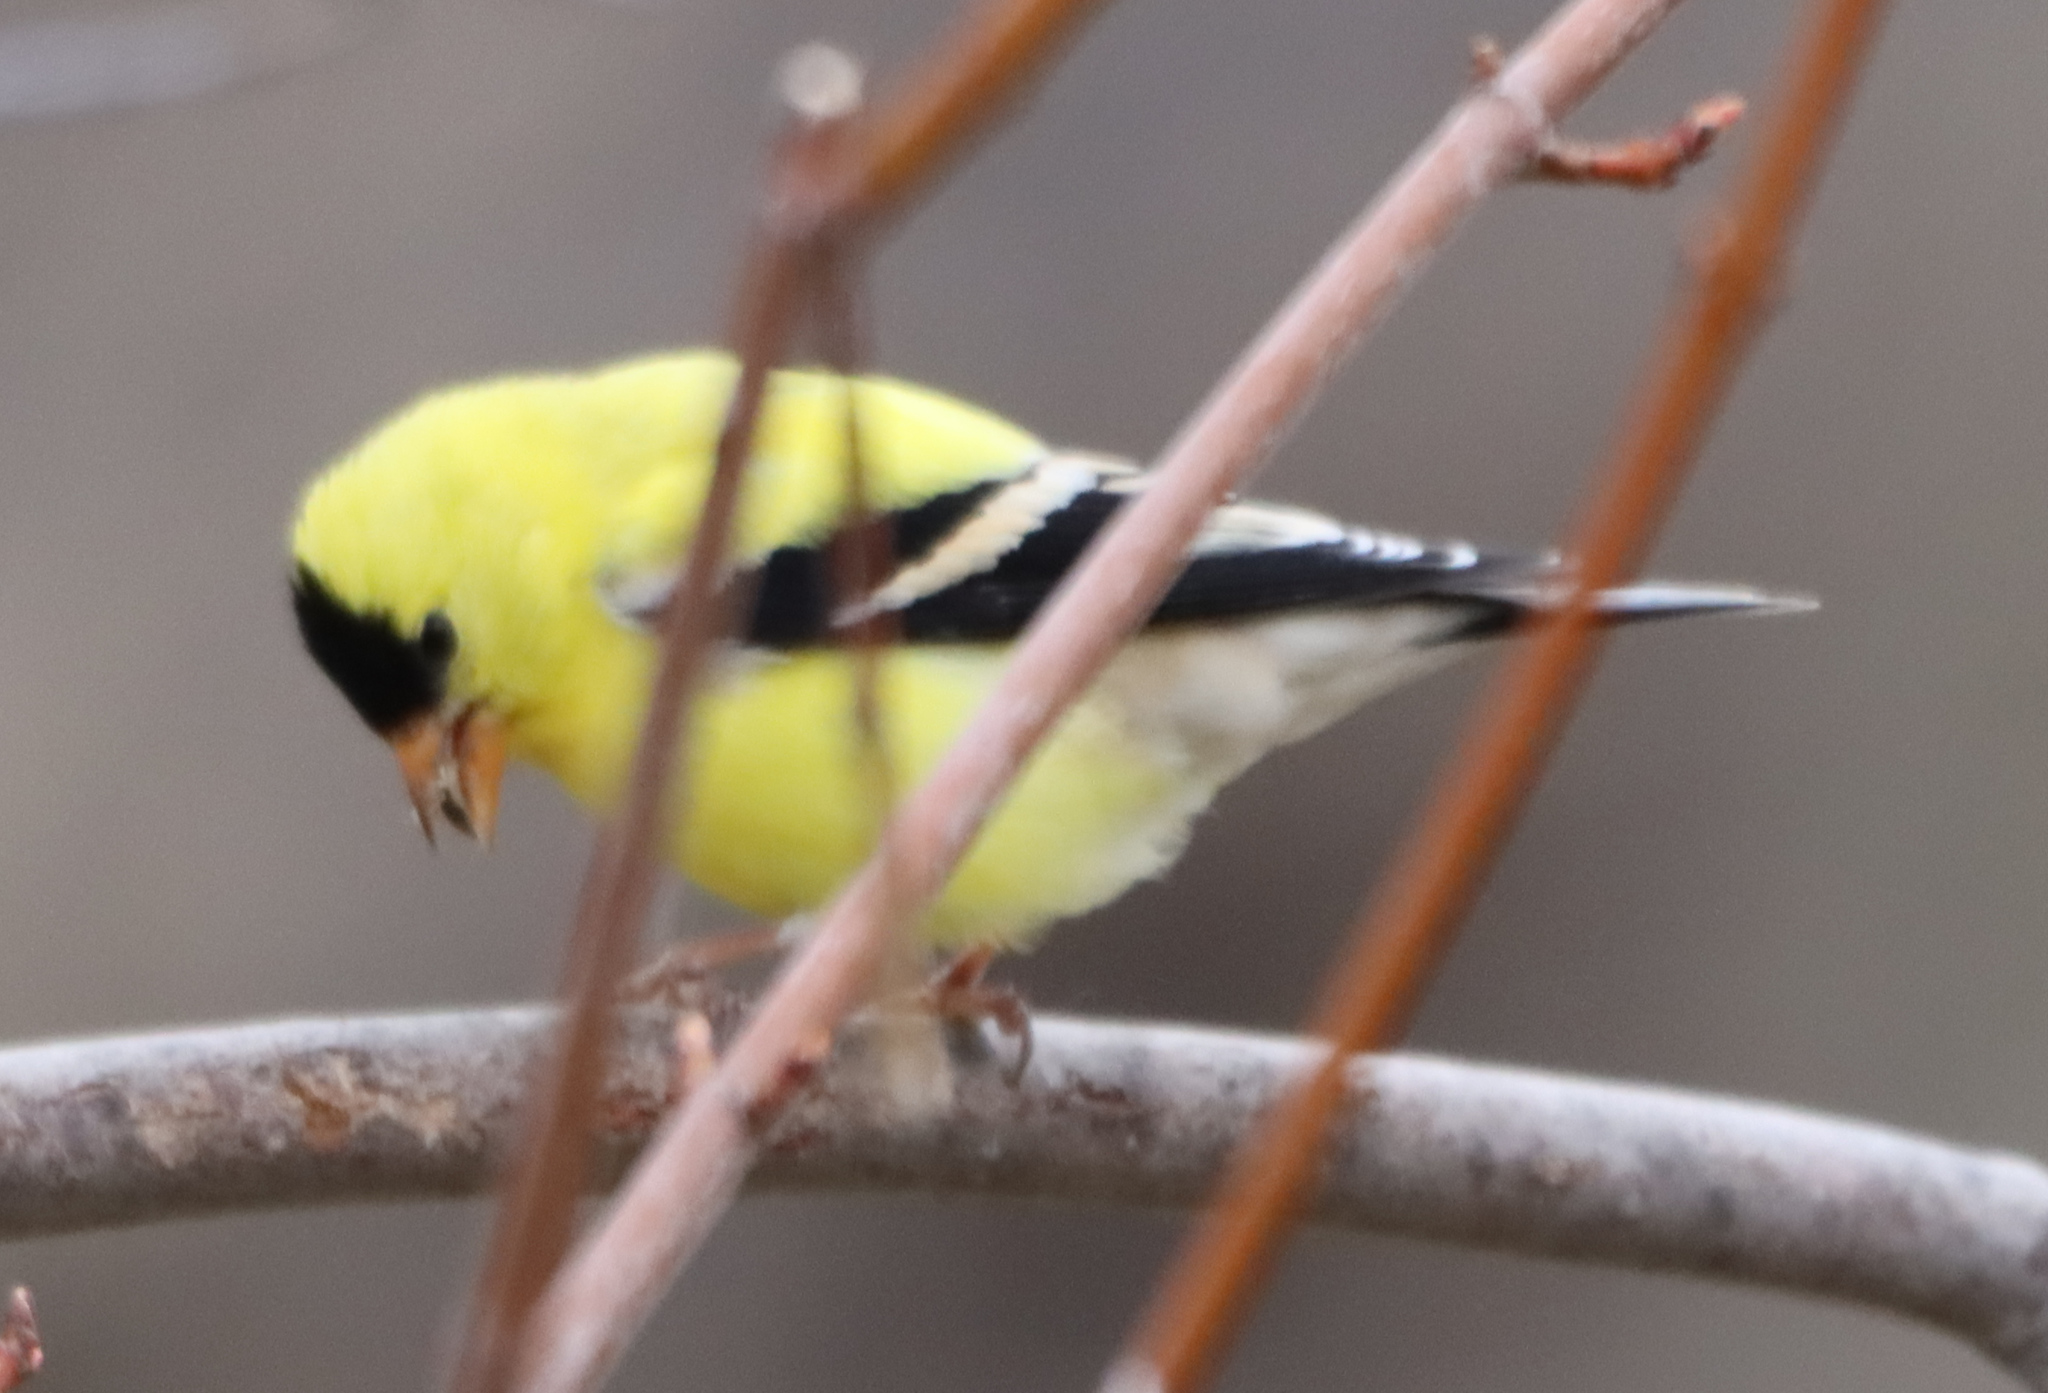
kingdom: Animalia
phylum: Chordata
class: Aves
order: Passeriformes
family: Fringillidae
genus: Spinus
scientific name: Spinus tristis
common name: American goldfinch
